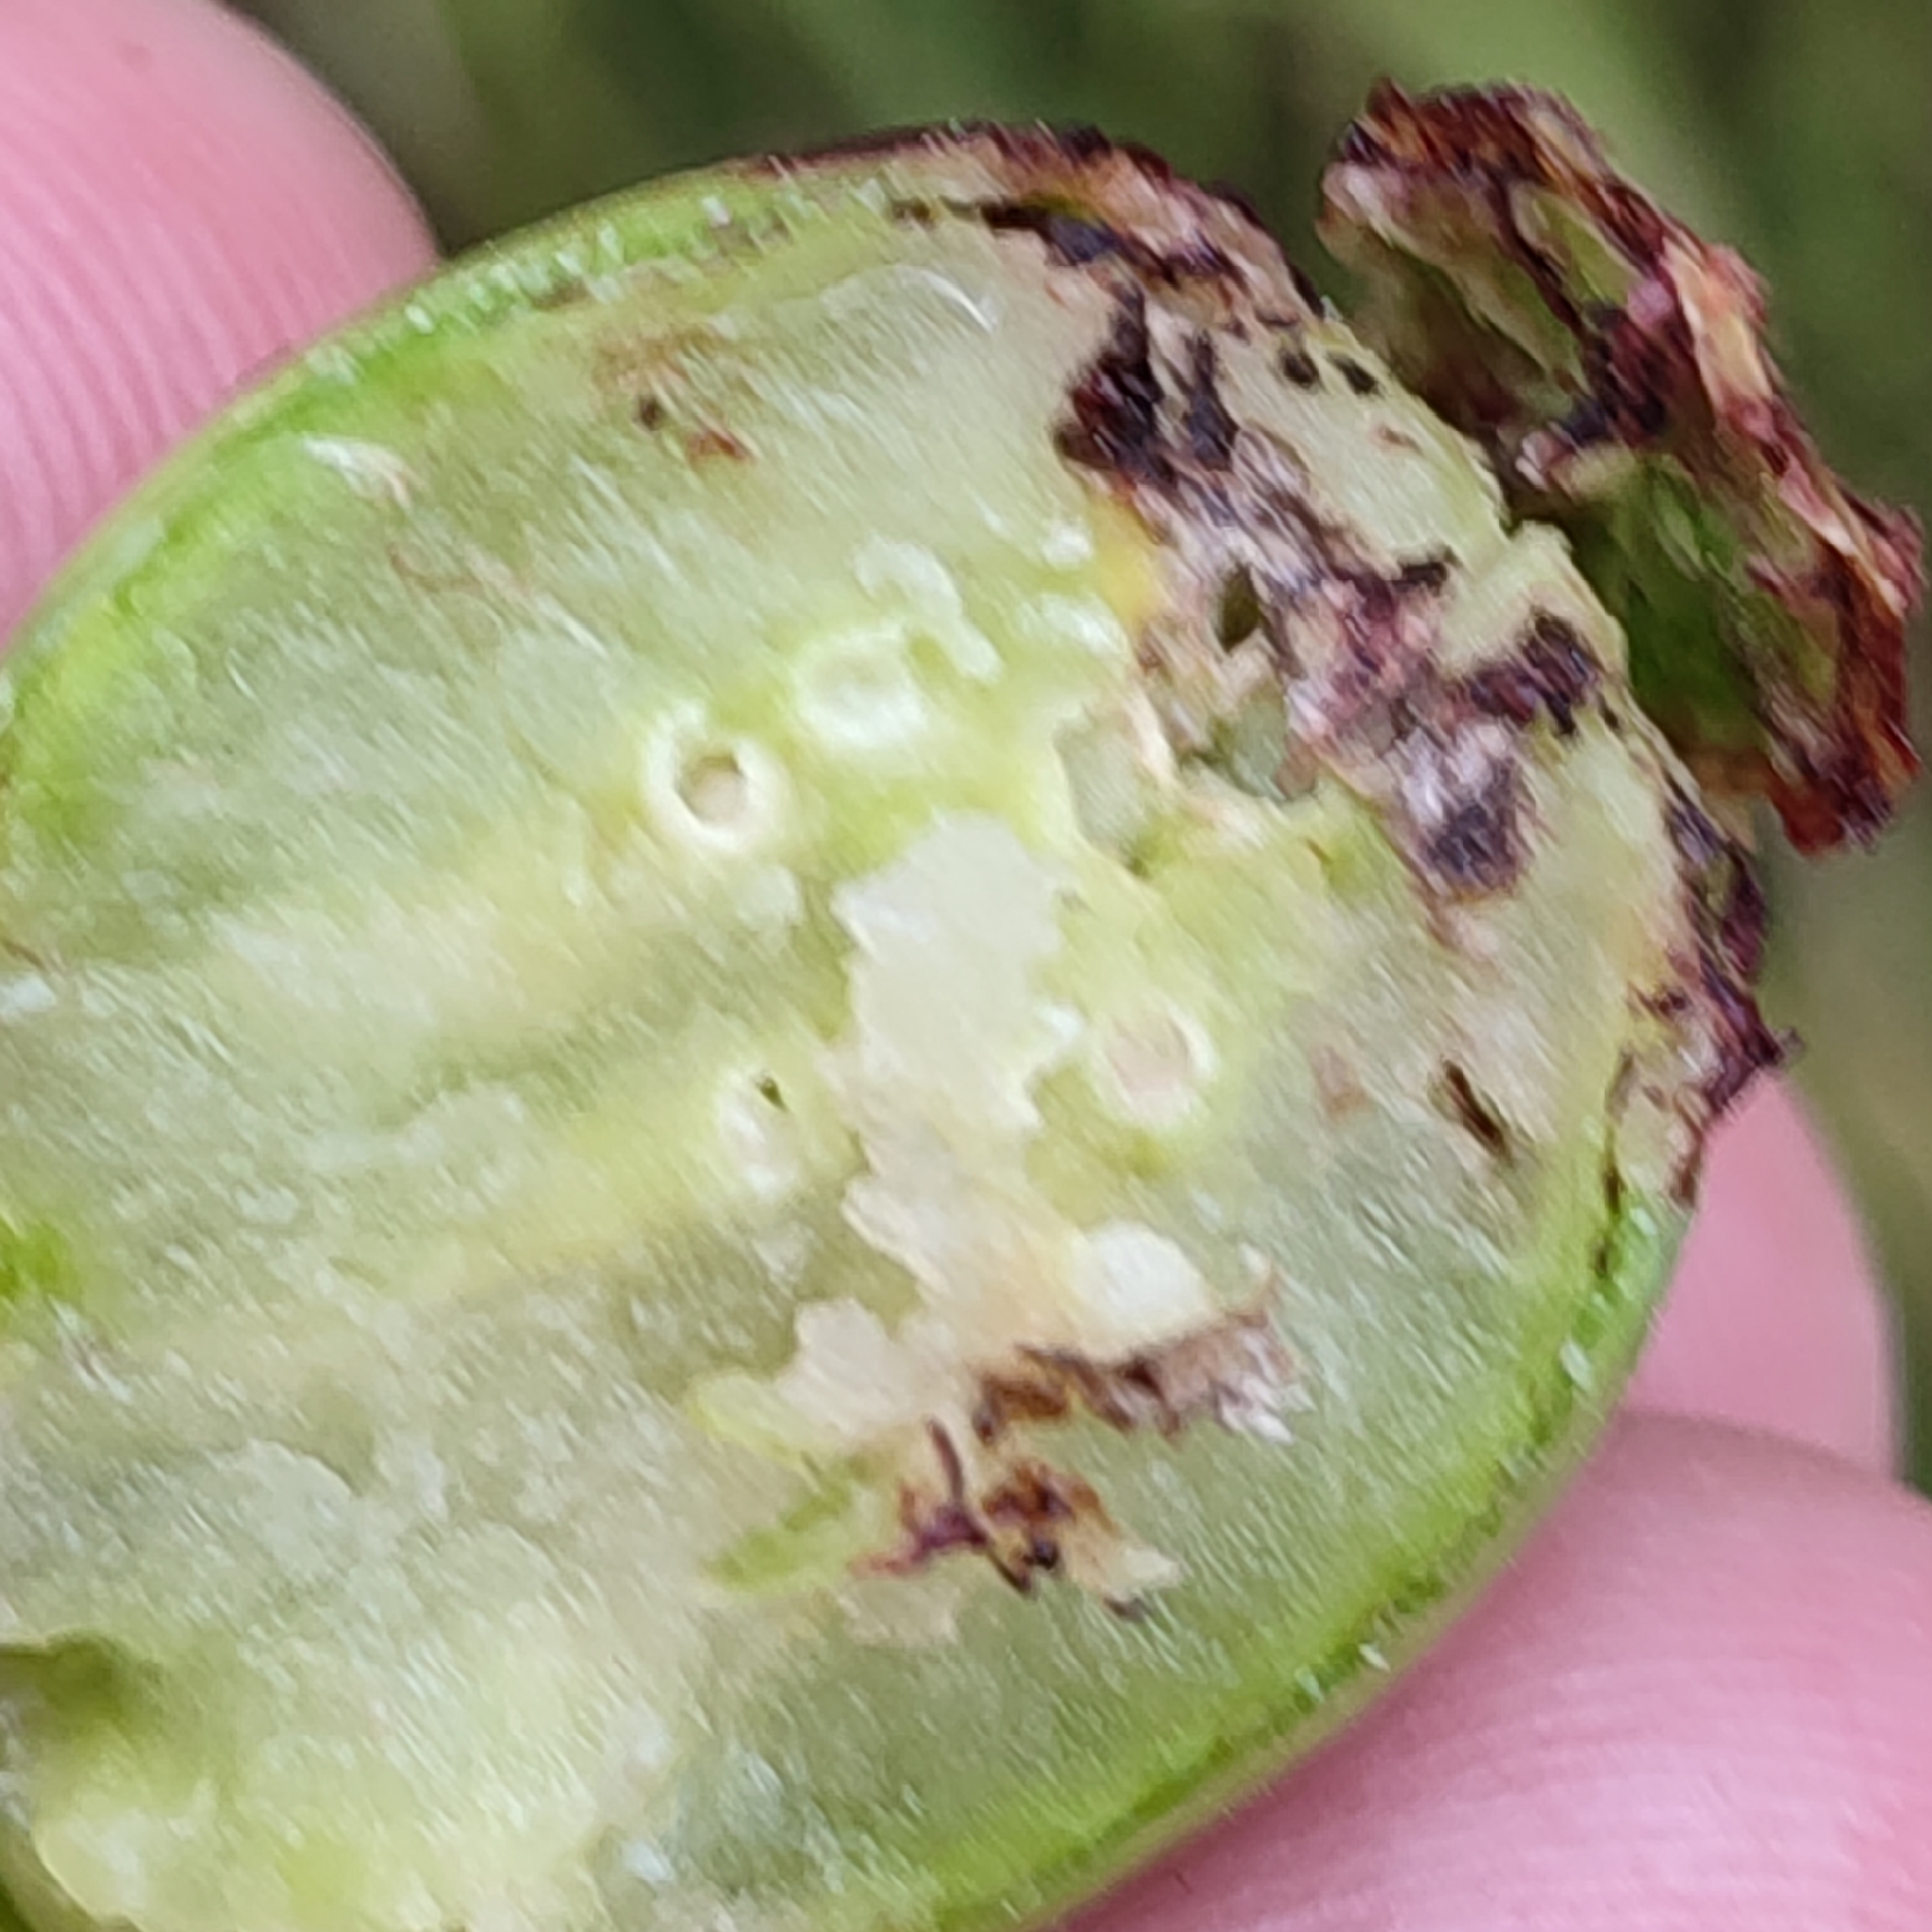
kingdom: Animalia
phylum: Arthropoda
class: Insecta
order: Hymenoptera
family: Cynipidae
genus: Aylax
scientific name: Aylax papaveris
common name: Gall wasp
